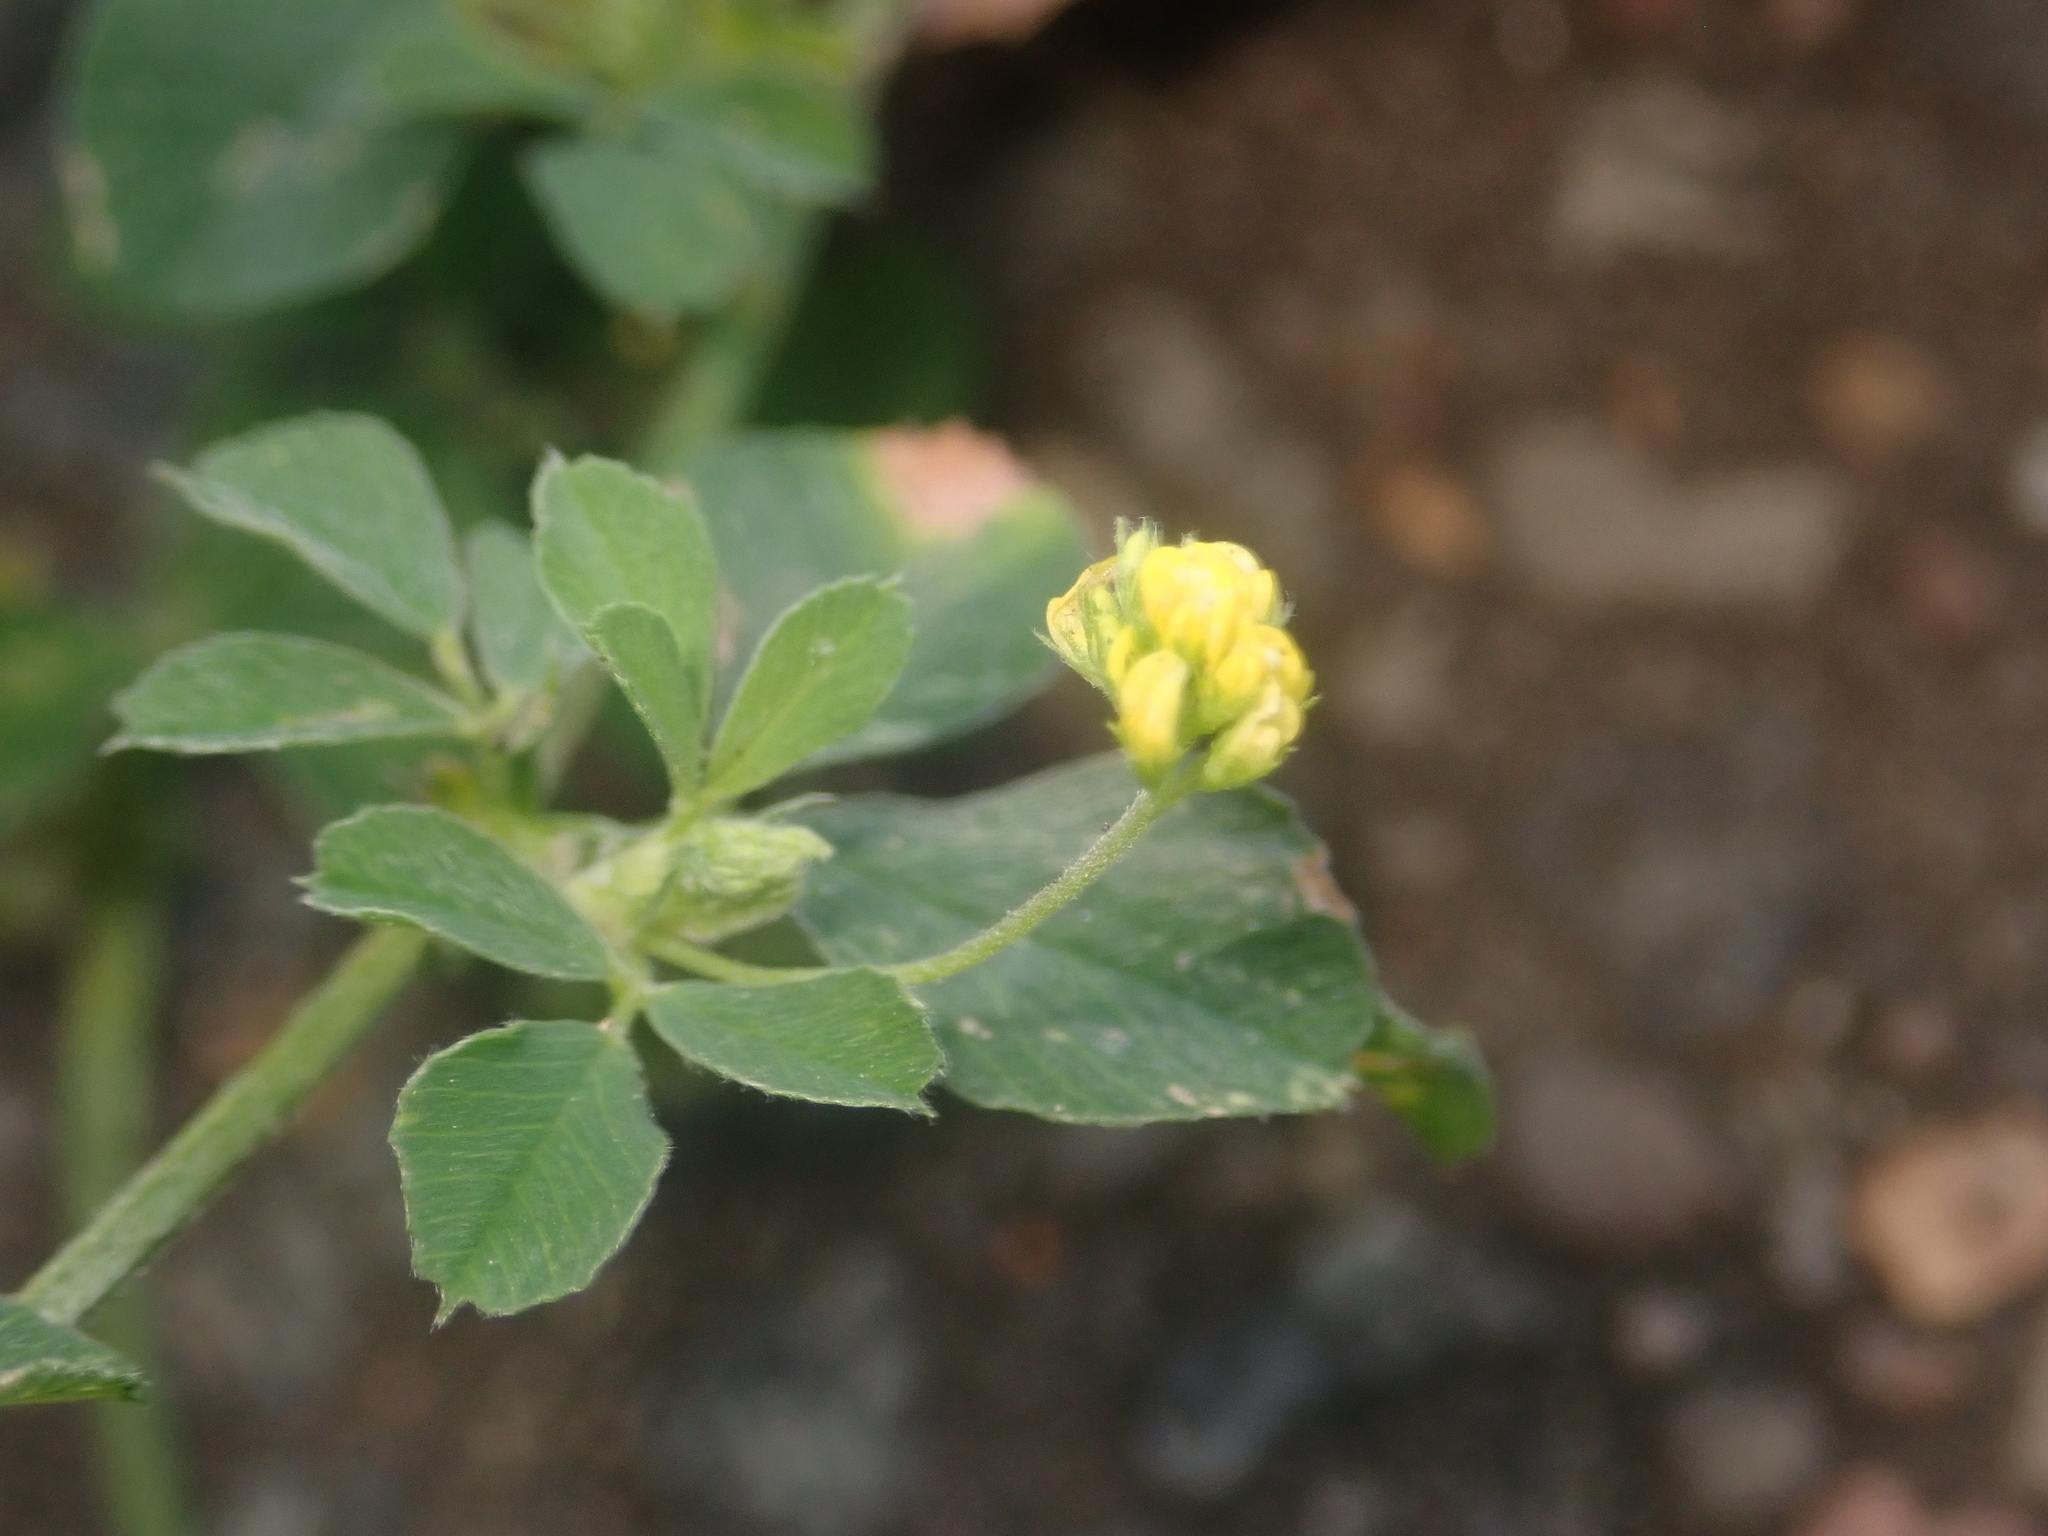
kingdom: Plantae
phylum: Tracheophyta
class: Magnoliopsida
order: Fabales
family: Fabaceae
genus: Medicago
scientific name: Medicago lupulina
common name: Black medick
